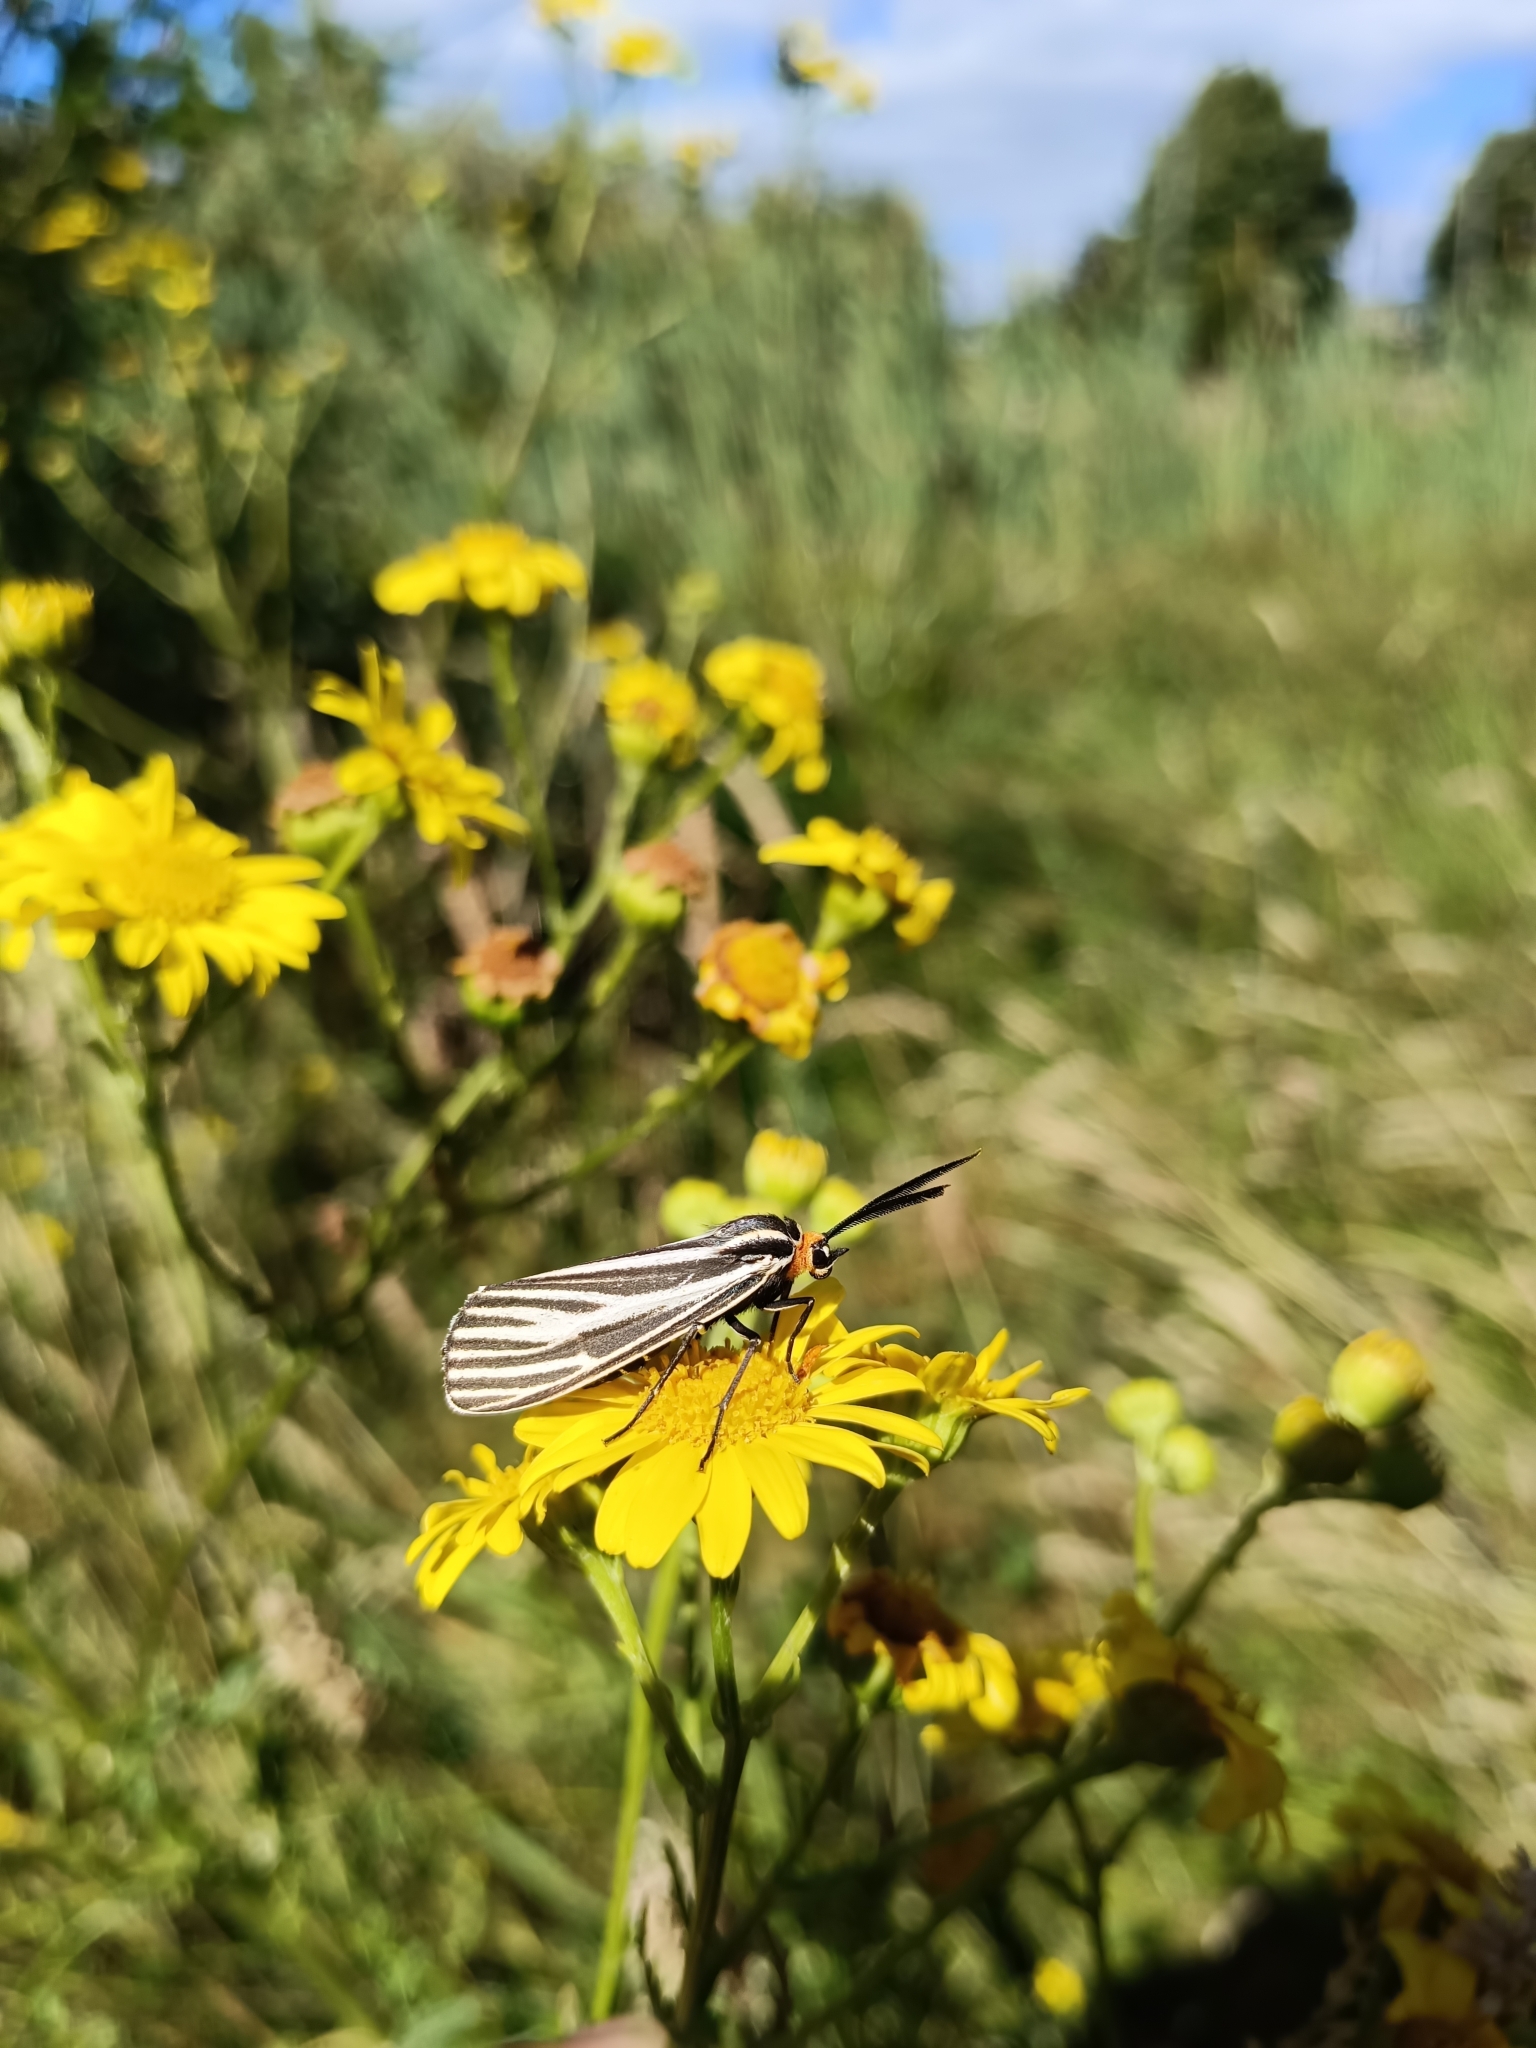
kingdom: Animalia
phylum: Arthropoda
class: Insecta
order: Lepidoptera
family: Erebidae
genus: Ctenucha
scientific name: Ctenucha vittigerum
